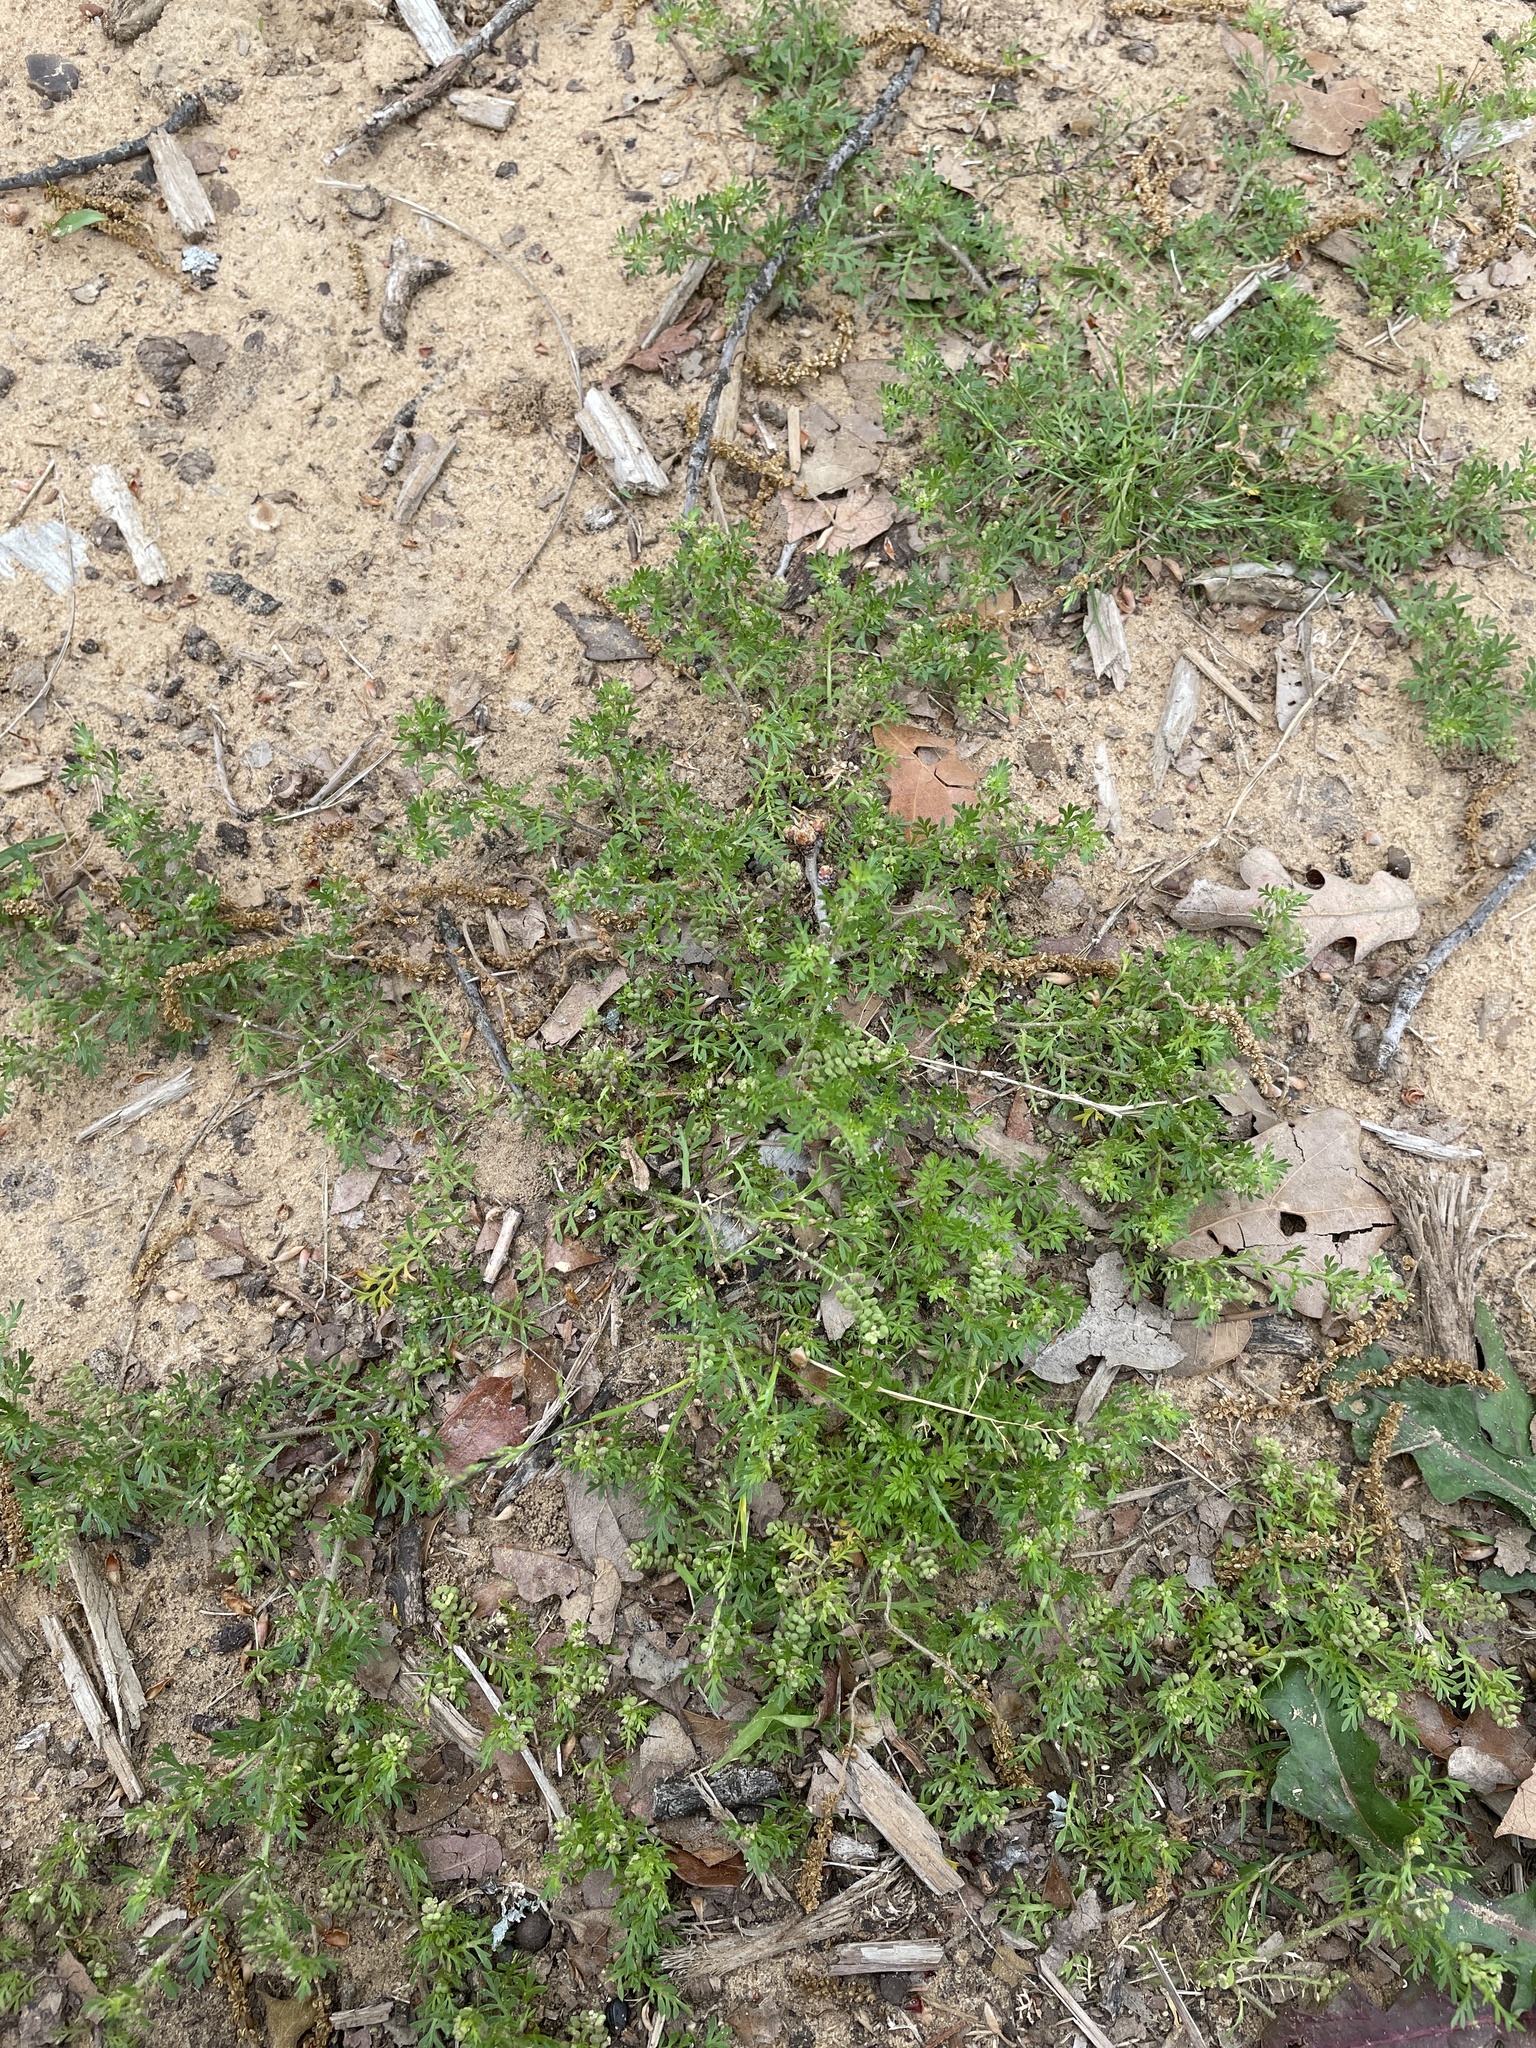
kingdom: Plantae
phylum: Tracheophyta
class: Magnoliopsida
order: Brassicales
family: Brassicaceae
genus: Lepidium
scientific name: Lepidium didymum
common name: Lesser swinecress
